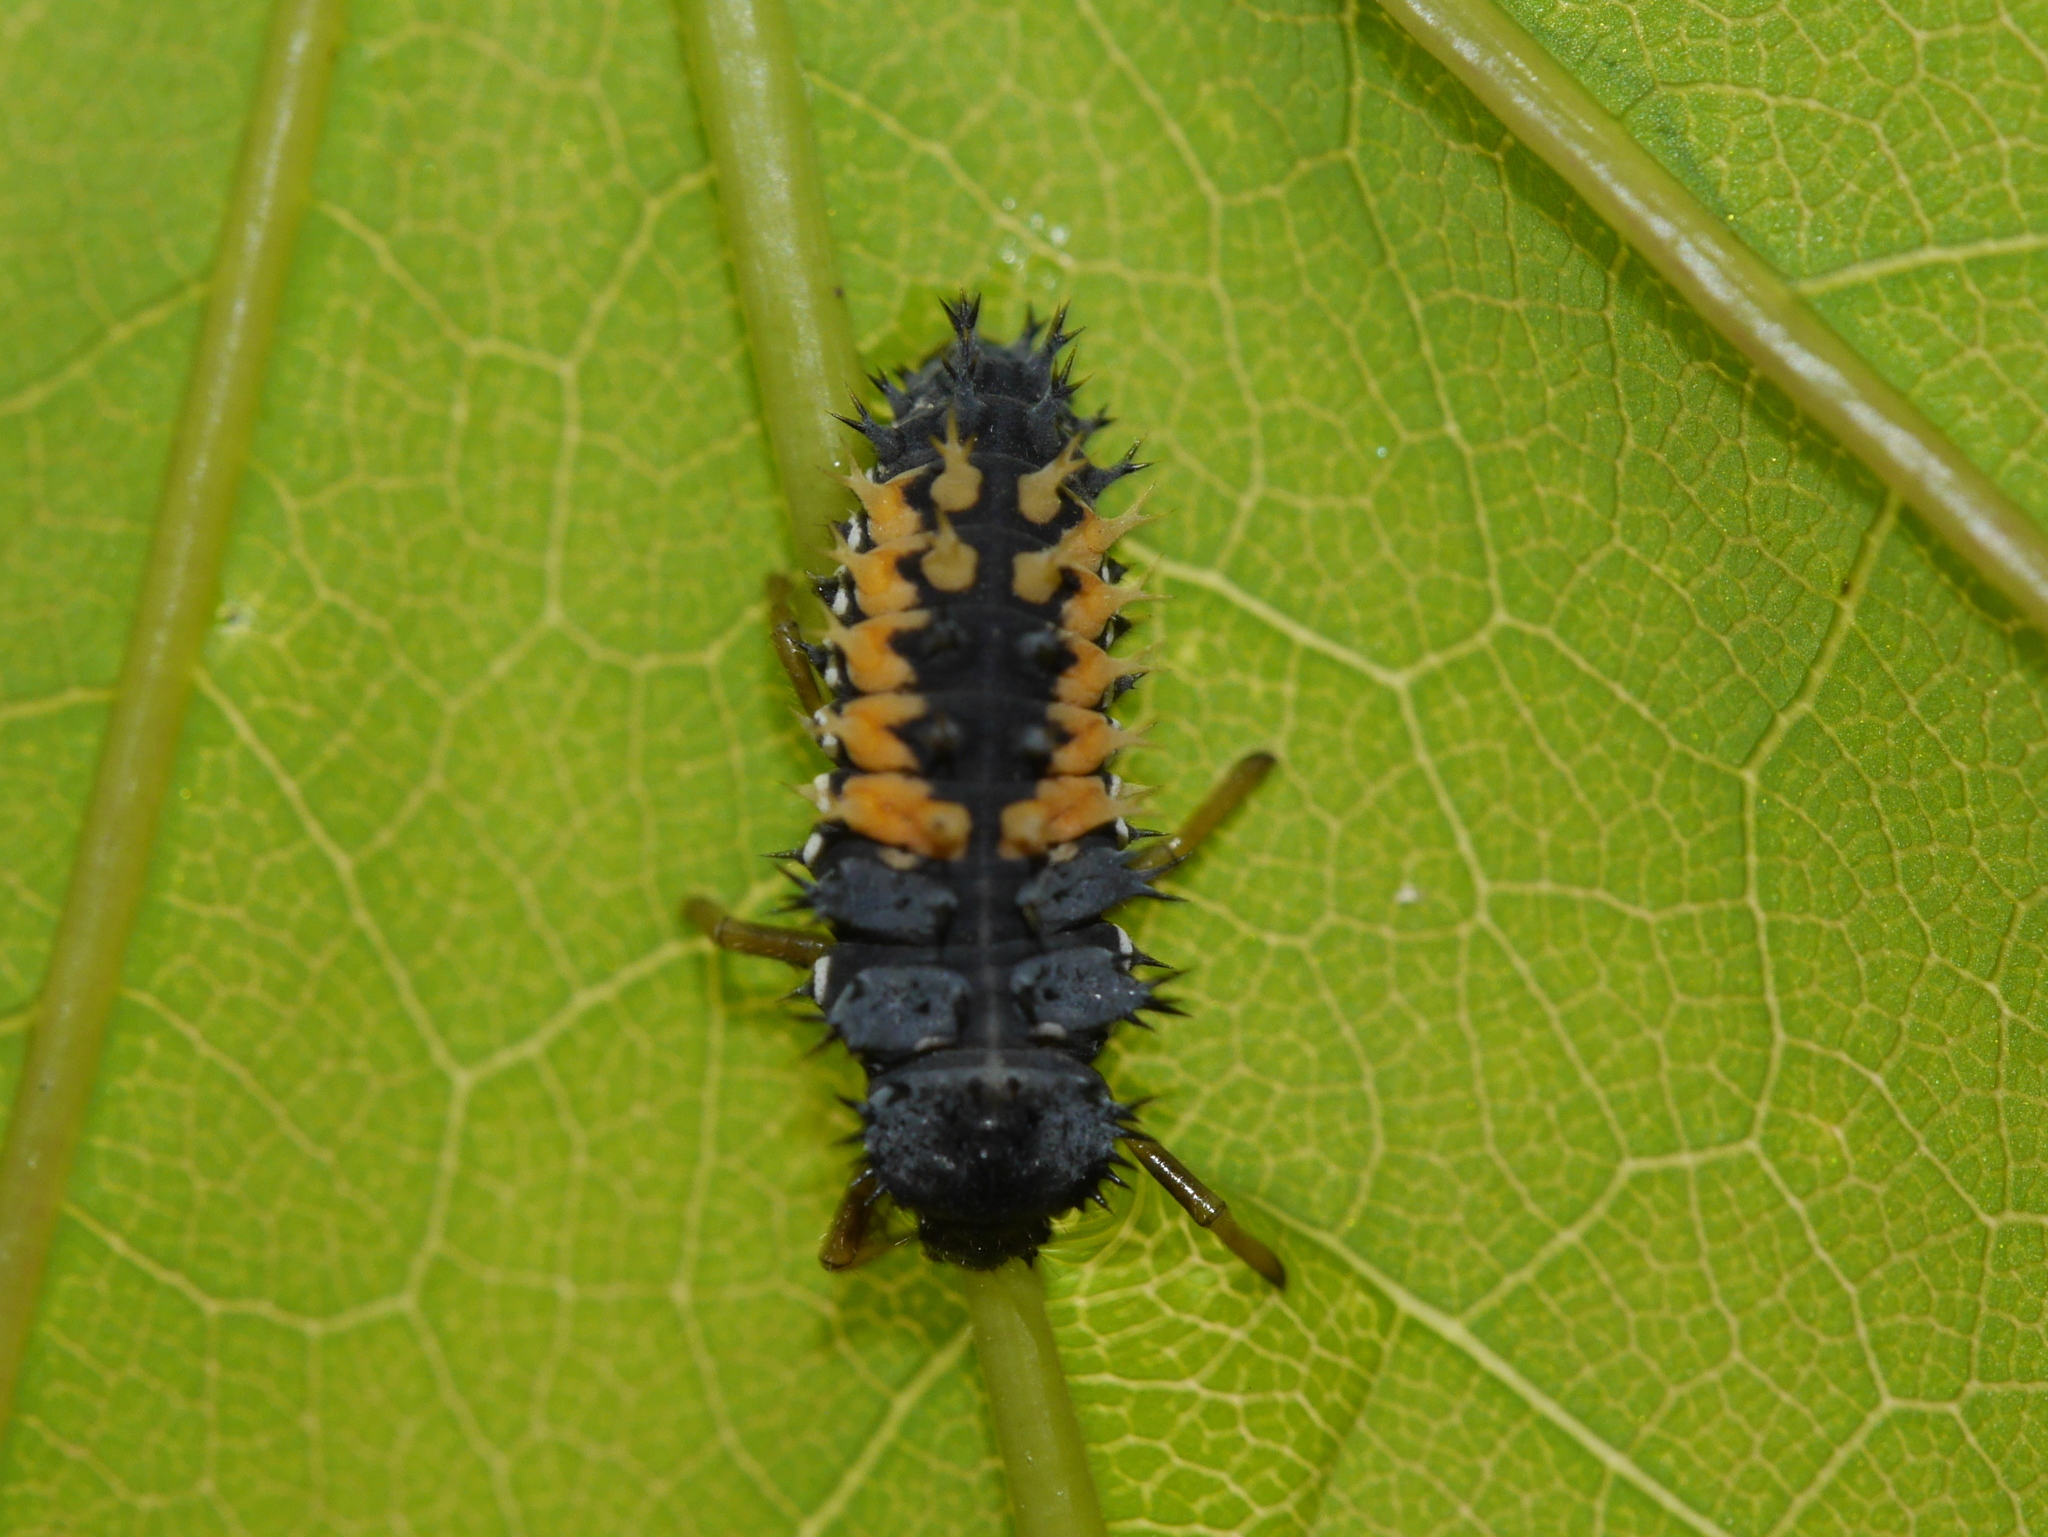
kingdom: Animalia
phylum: Arthropoda
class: Insecta
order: Coleoptera
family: Coccinellidae
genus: Harmonia
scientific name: Harmonia axyridis
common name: Harlequin ladybird
